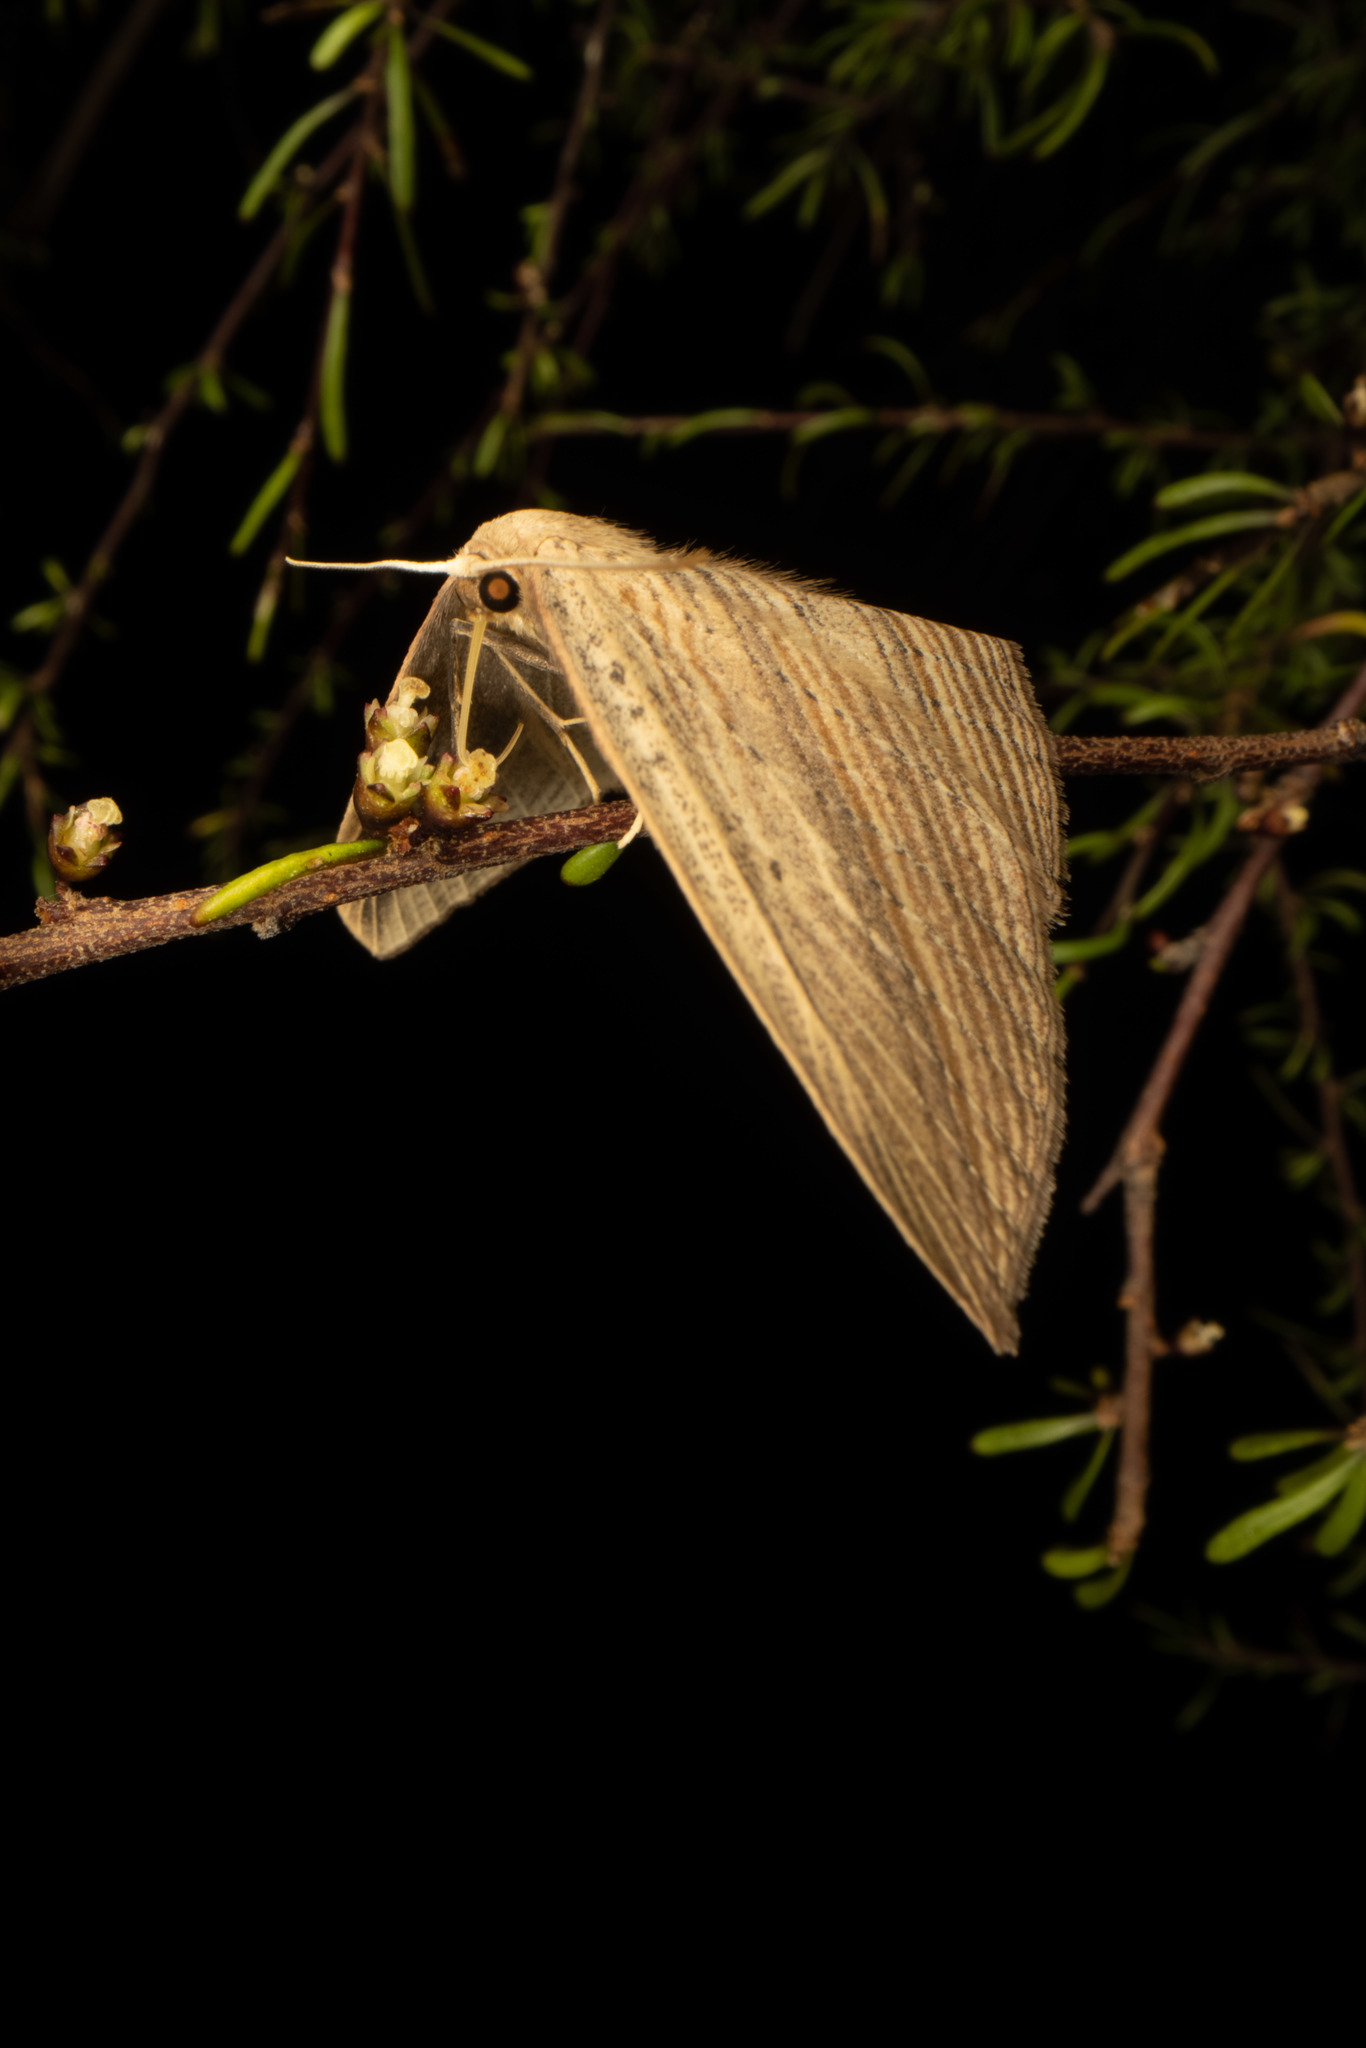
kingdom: Animalia
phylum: Arthropoda
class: Insecta
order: Lepidoptera
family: Geometridae
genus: Epiphryne
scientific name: Epiphryne verriculata
